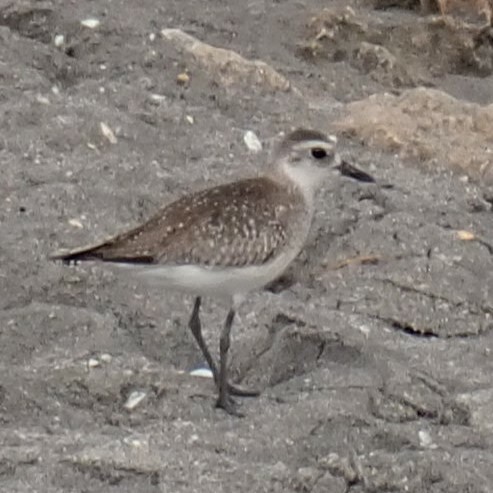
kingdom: Animalia
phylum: Chordata
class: Aves
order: Charadriiformes
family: Charadriidae
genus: Pluvialis
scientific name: Pluvialis squatarola
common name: Grey plover
